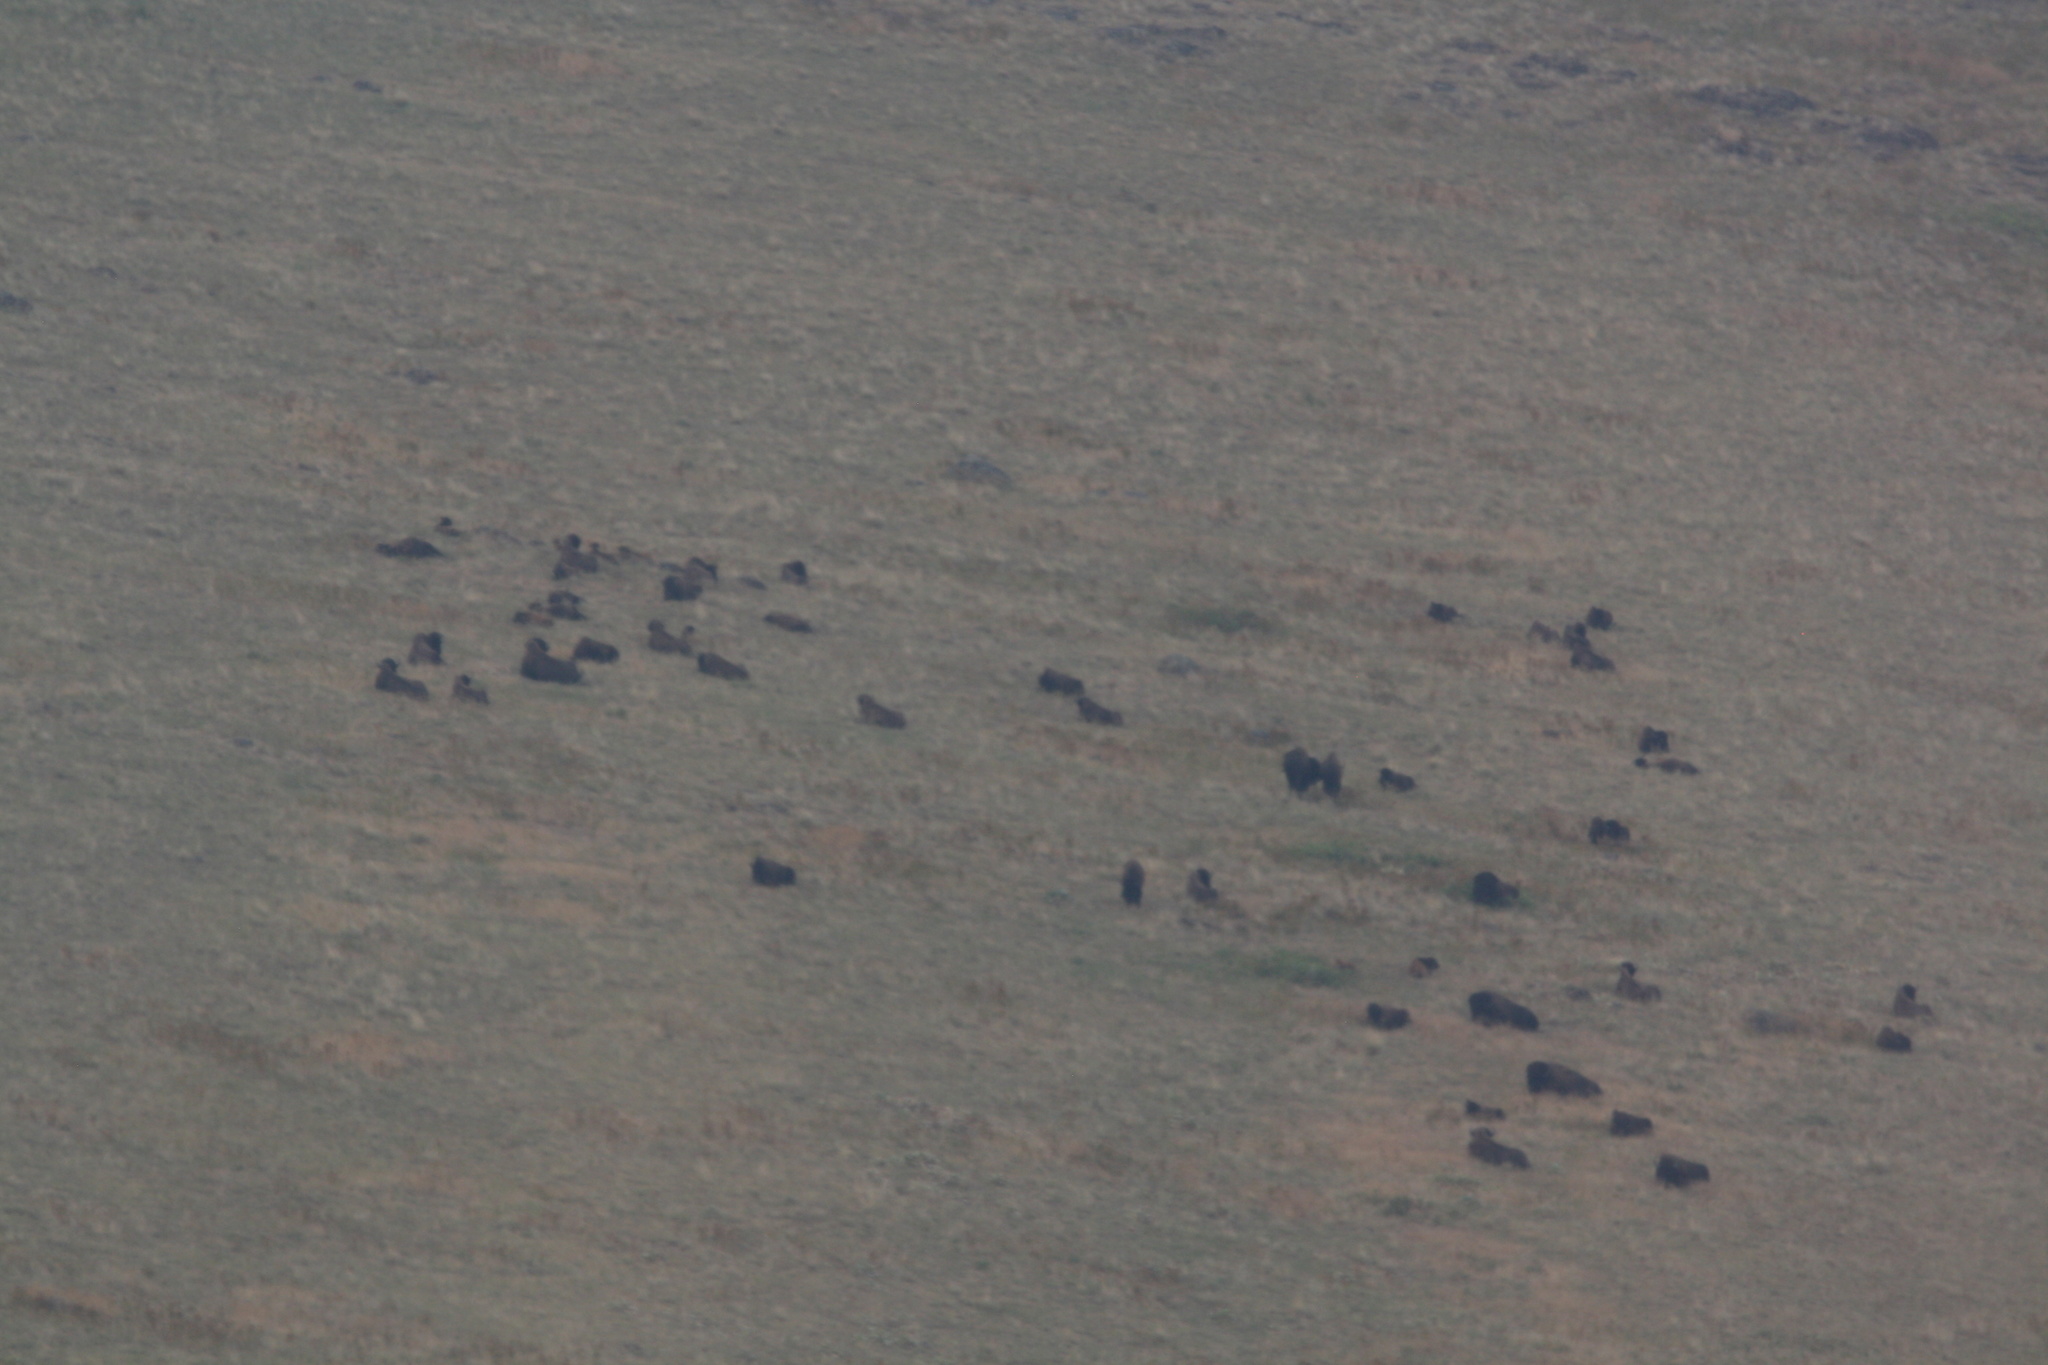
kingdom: Animalia
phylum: Chordata
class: Mammalia
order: Artiodactyla
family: Bovidae
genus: Bison
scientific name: Bison bison
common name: American bison
